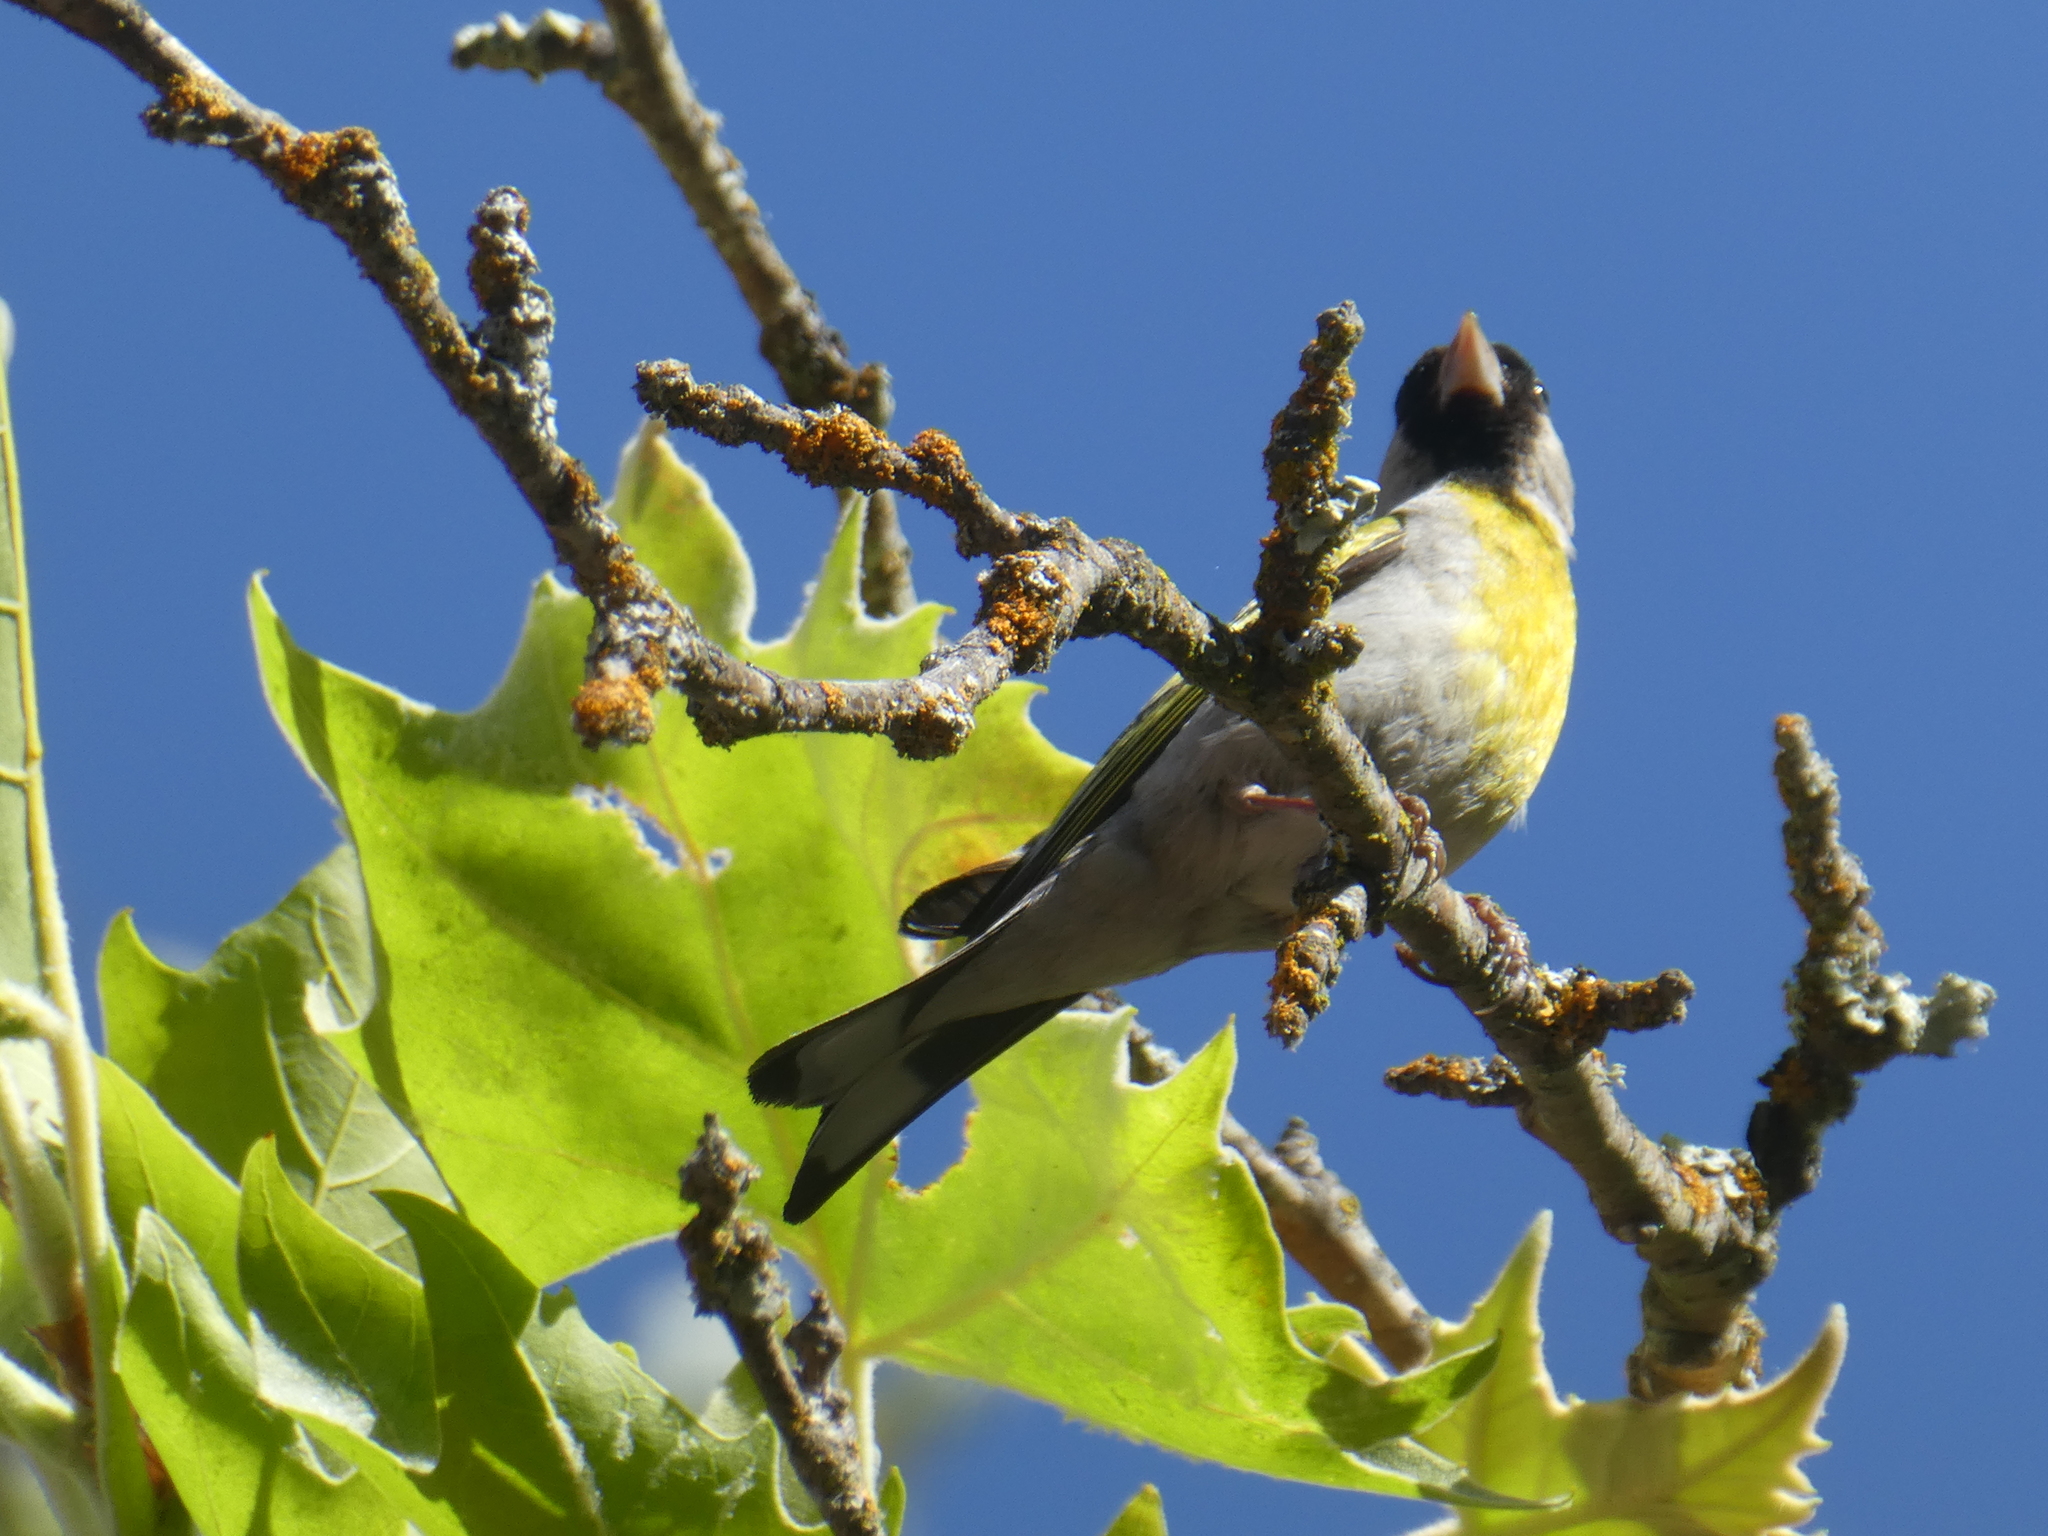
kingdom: Animalia
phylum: Chordata
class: Aves
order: Passeriformes
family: Fringillidae
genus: Spinus
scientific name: Spinus lawrencei
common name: Lawrence's goldfinch
